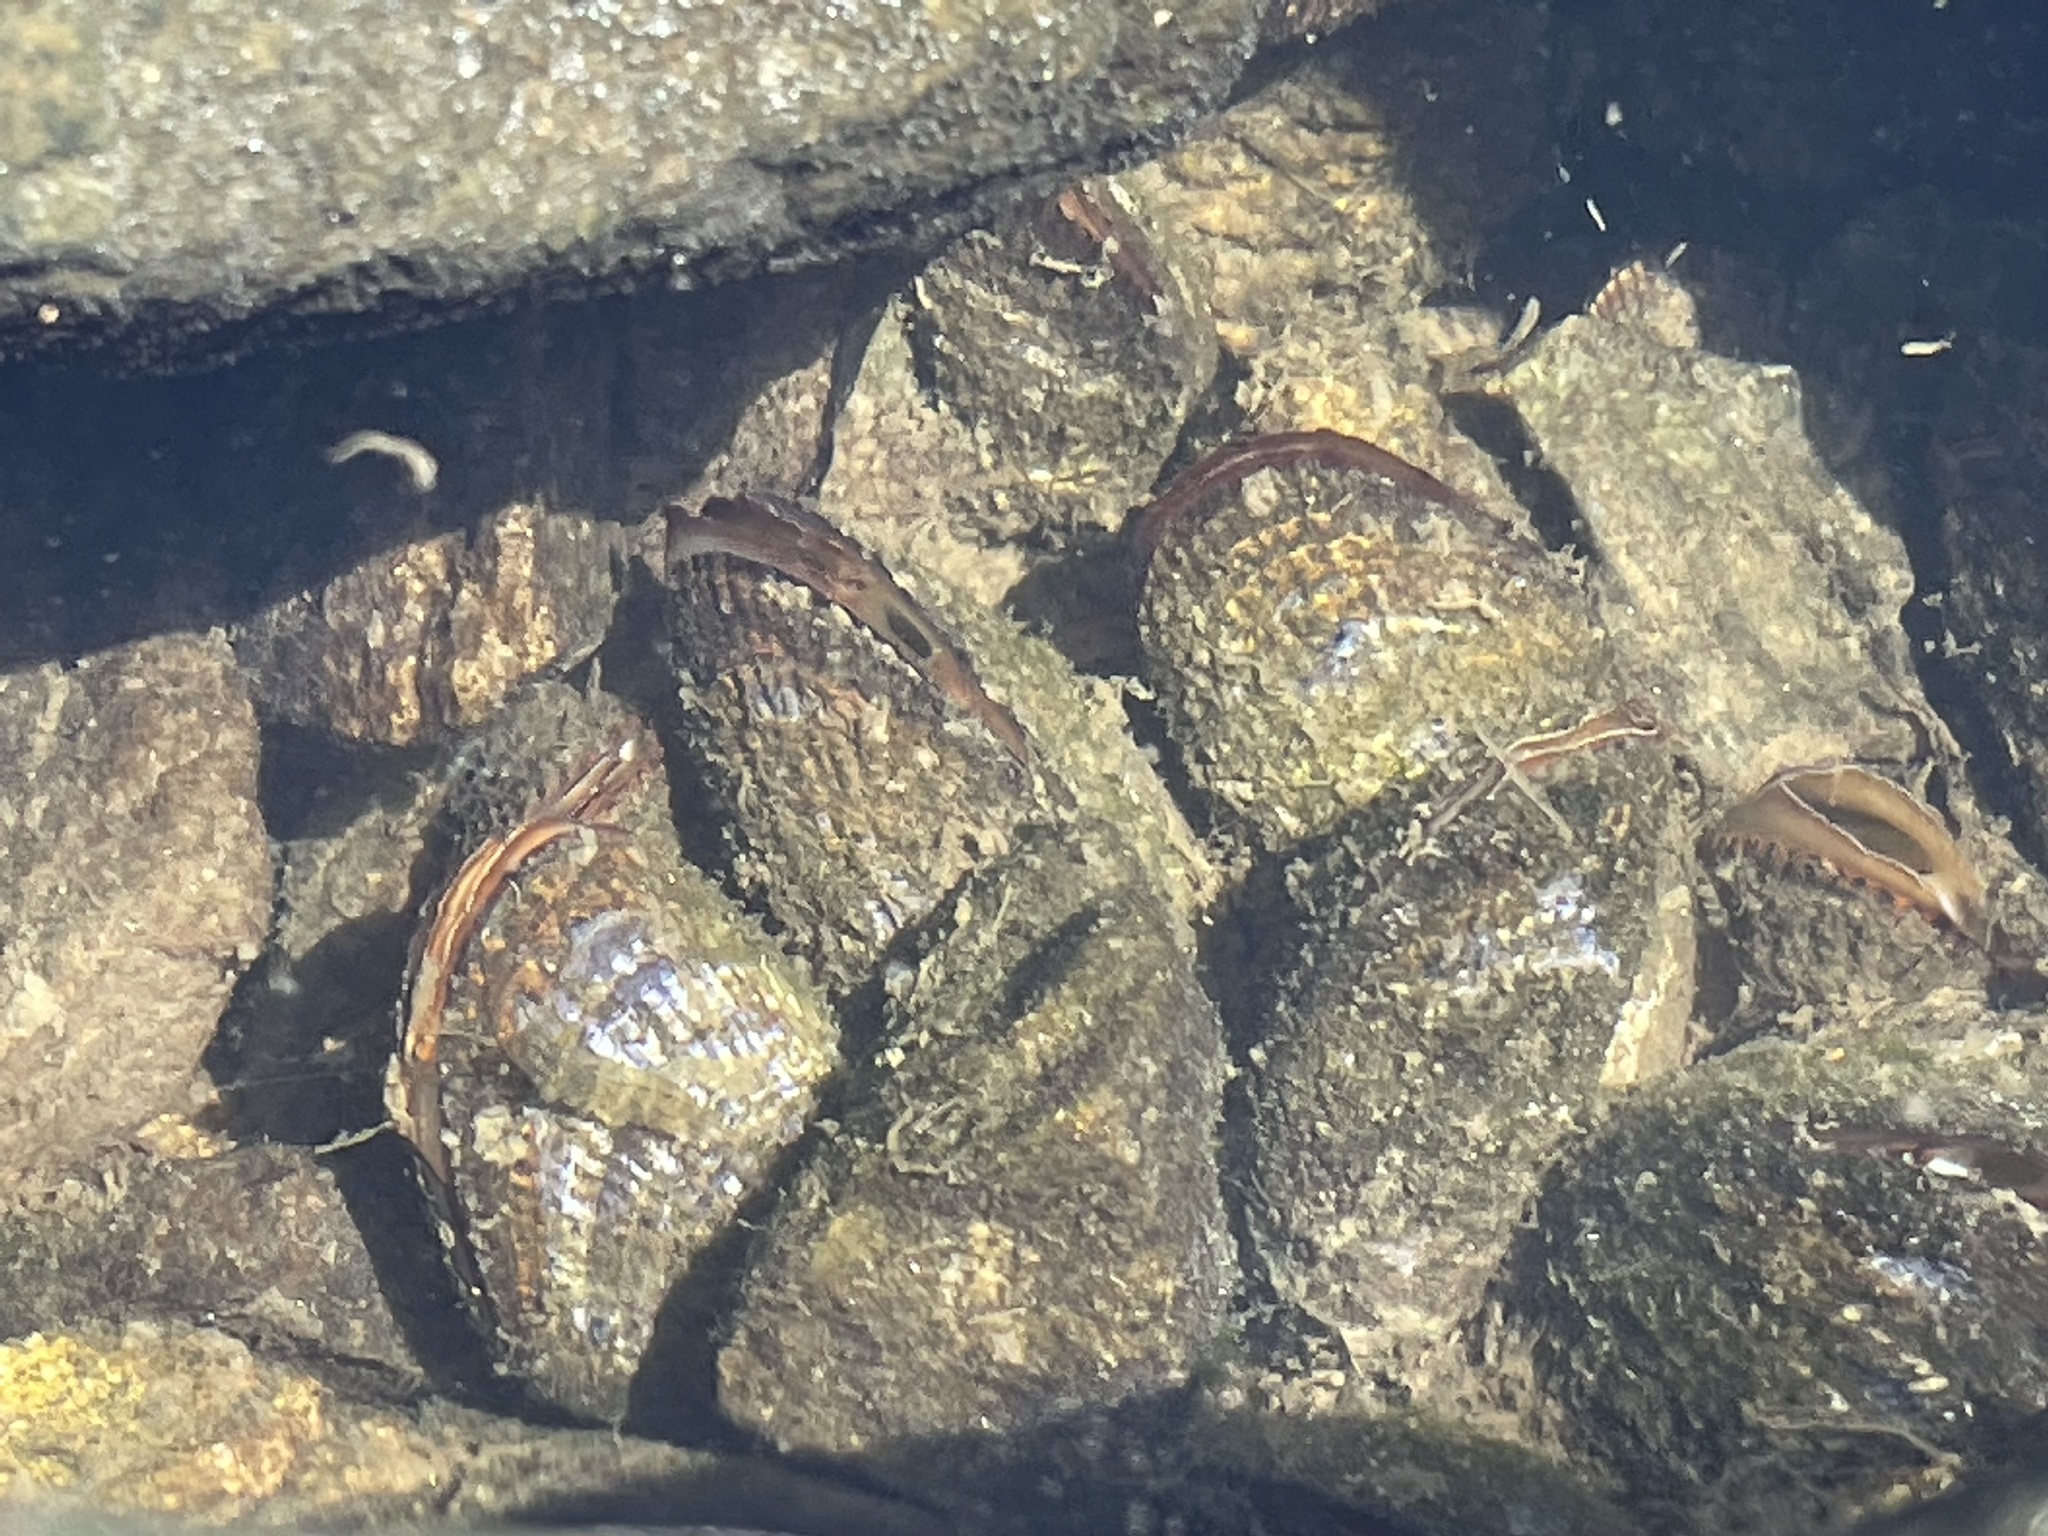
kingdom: Animalia
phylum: Mollusca
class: Bivalvia
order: Mytilida
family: Mytilidae
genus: Geukensia
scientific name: Geukensia demissa
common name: Ribbed mussel
